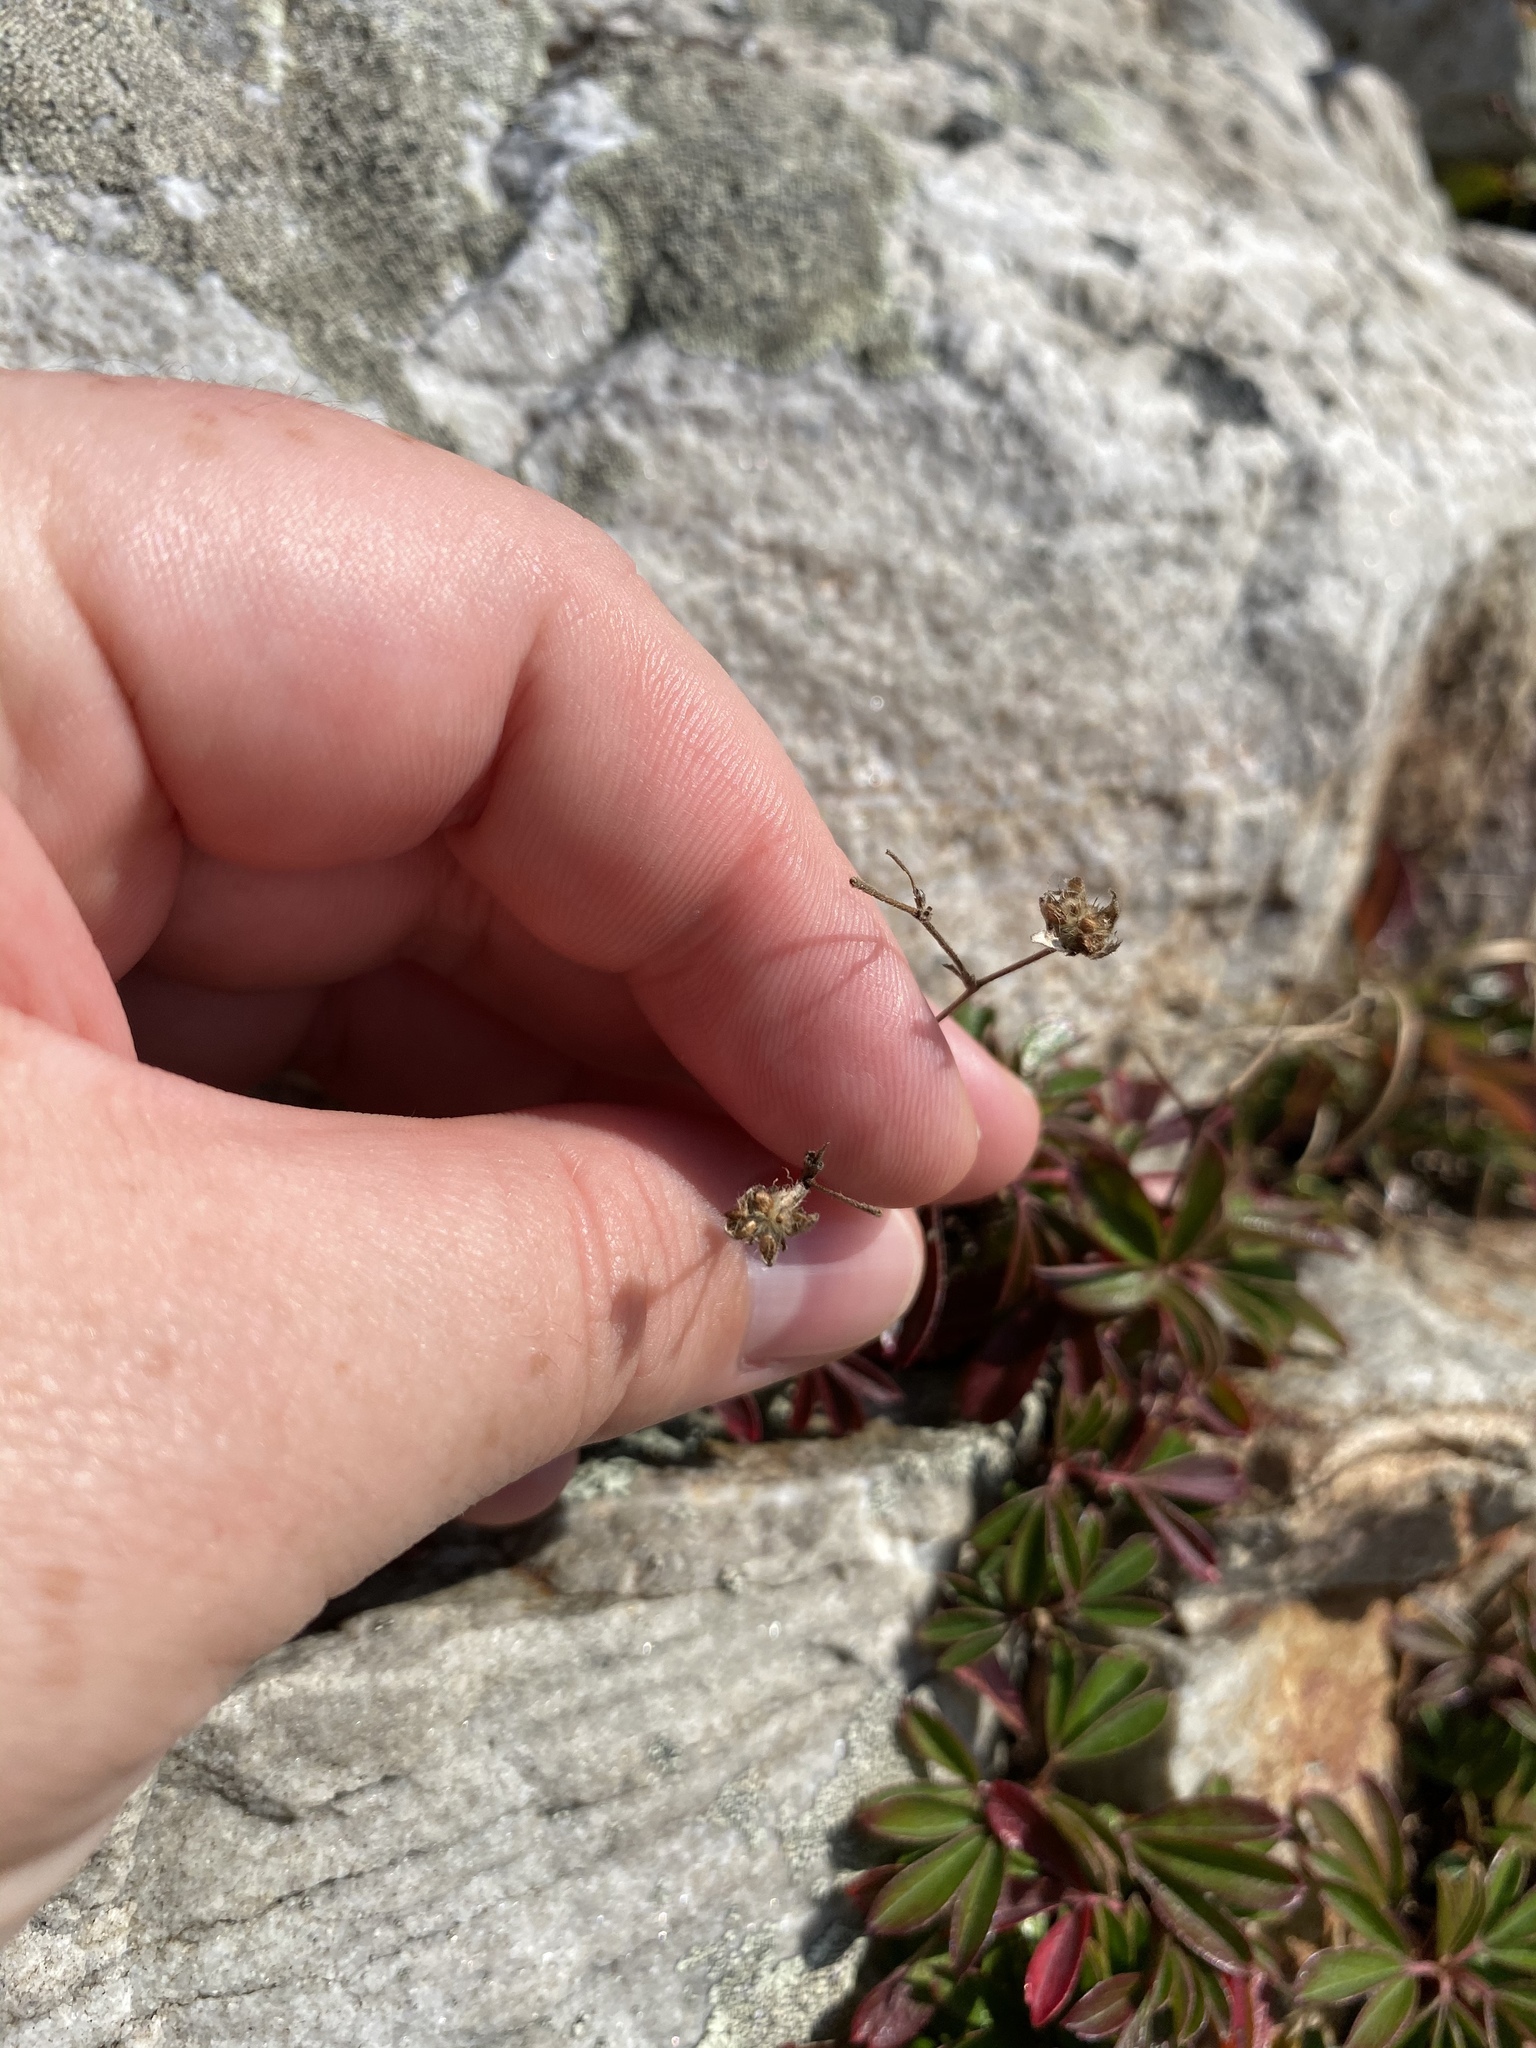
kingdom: Plantae
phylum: Tracheophyta
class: Magnoliopsida
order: Rosales
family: Rosaceae
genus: Sibbaldia
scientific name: Sibbaldia tridentata
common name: Three-toothed cinquefoil
